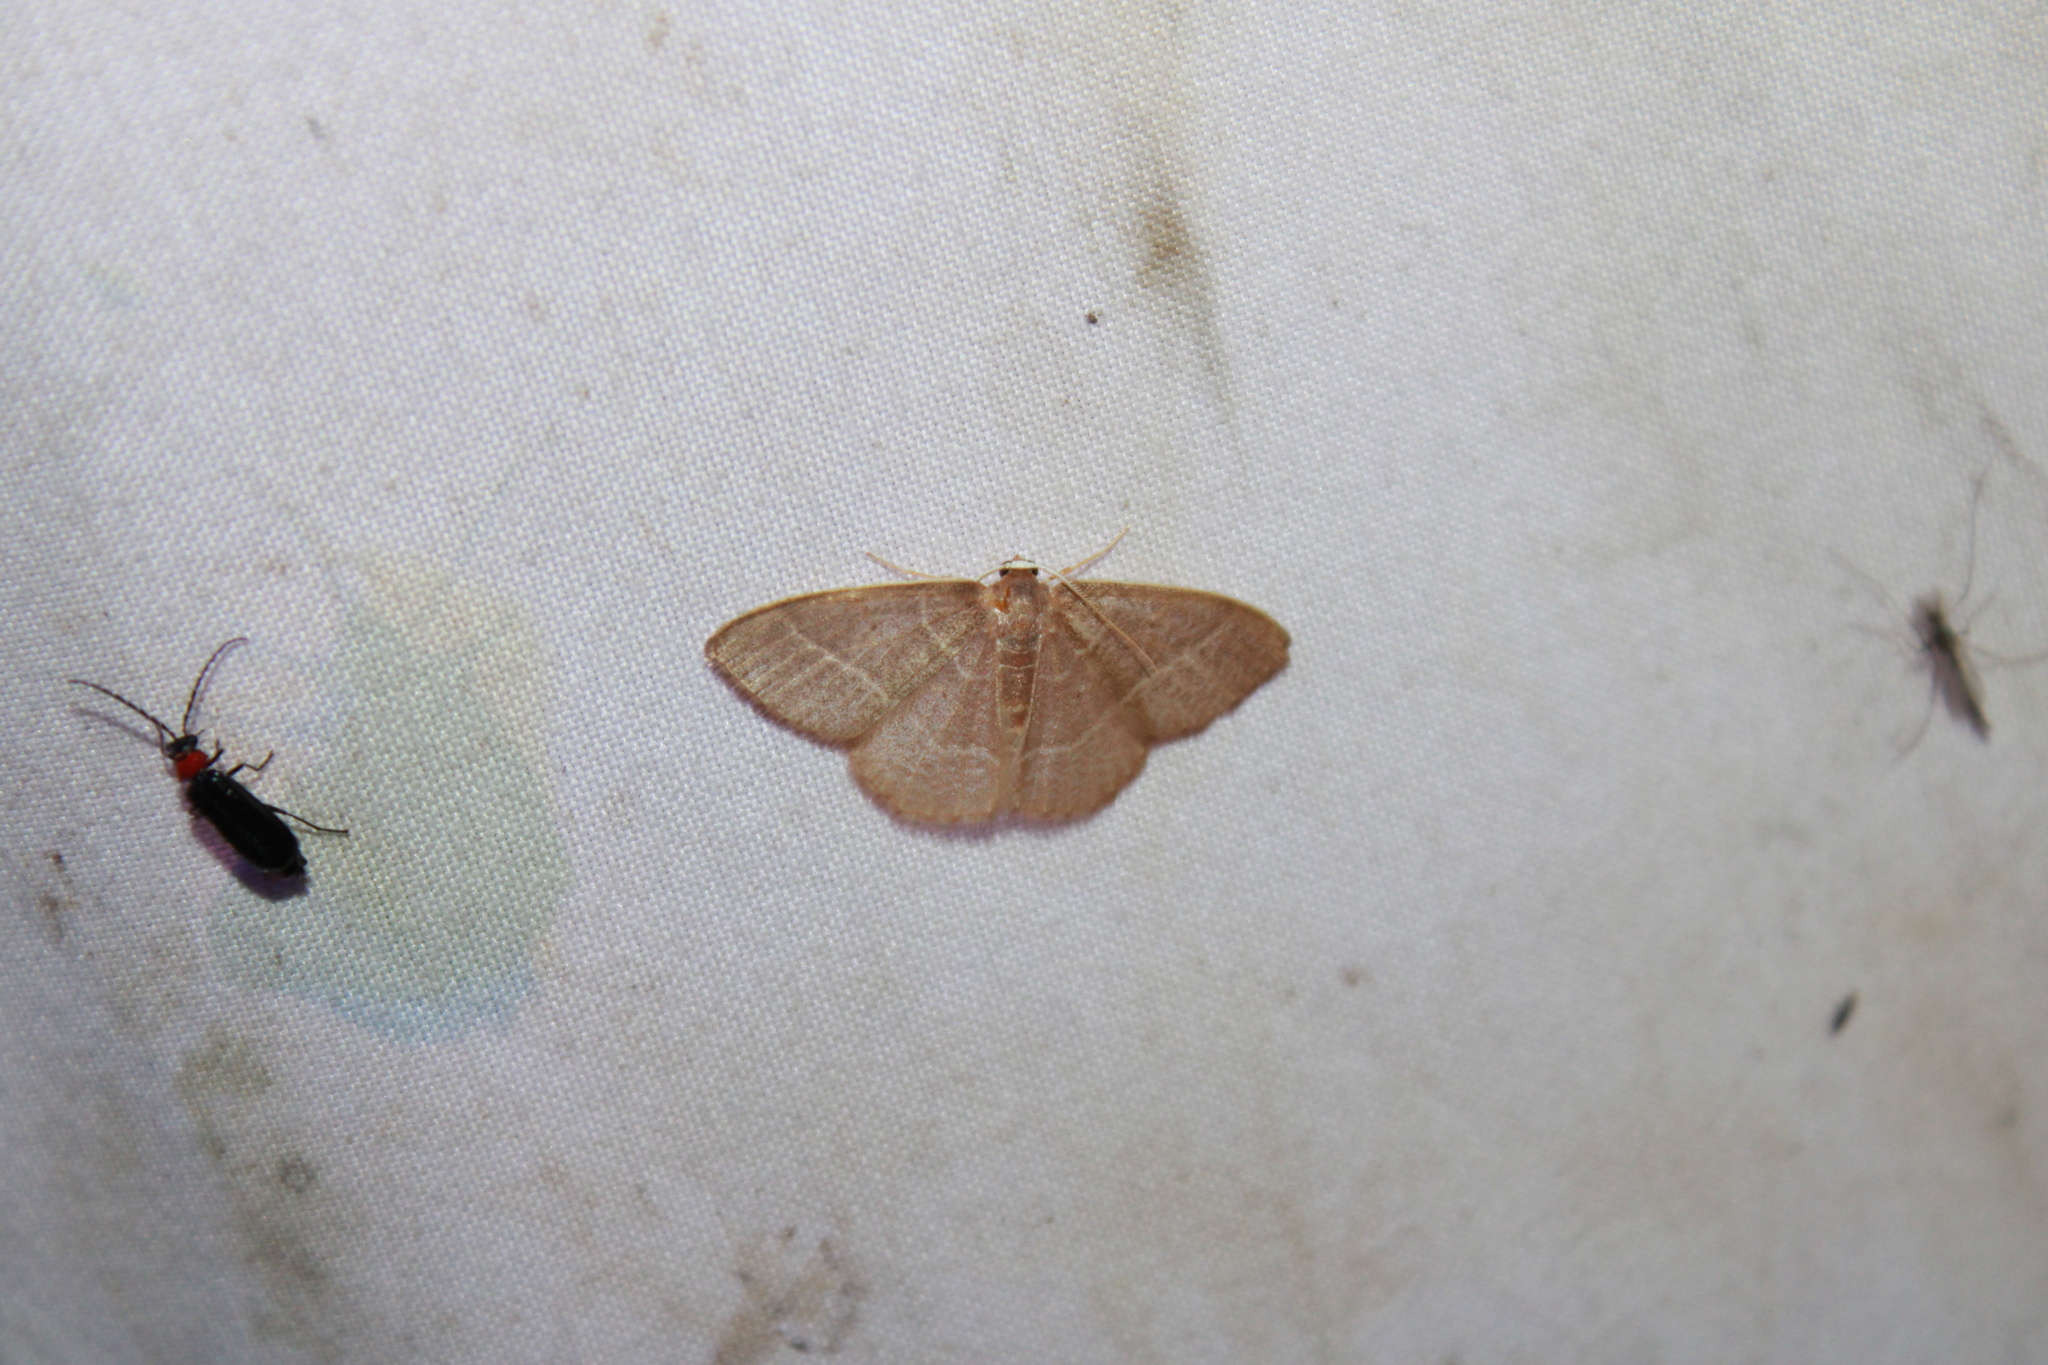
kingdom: Animalia
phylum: Arthropoda
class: Insecta
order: Lepidoptera
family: Geometridae
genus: Nemoria
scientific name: Nemoria bistriaria
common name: Red-fringed emerald
